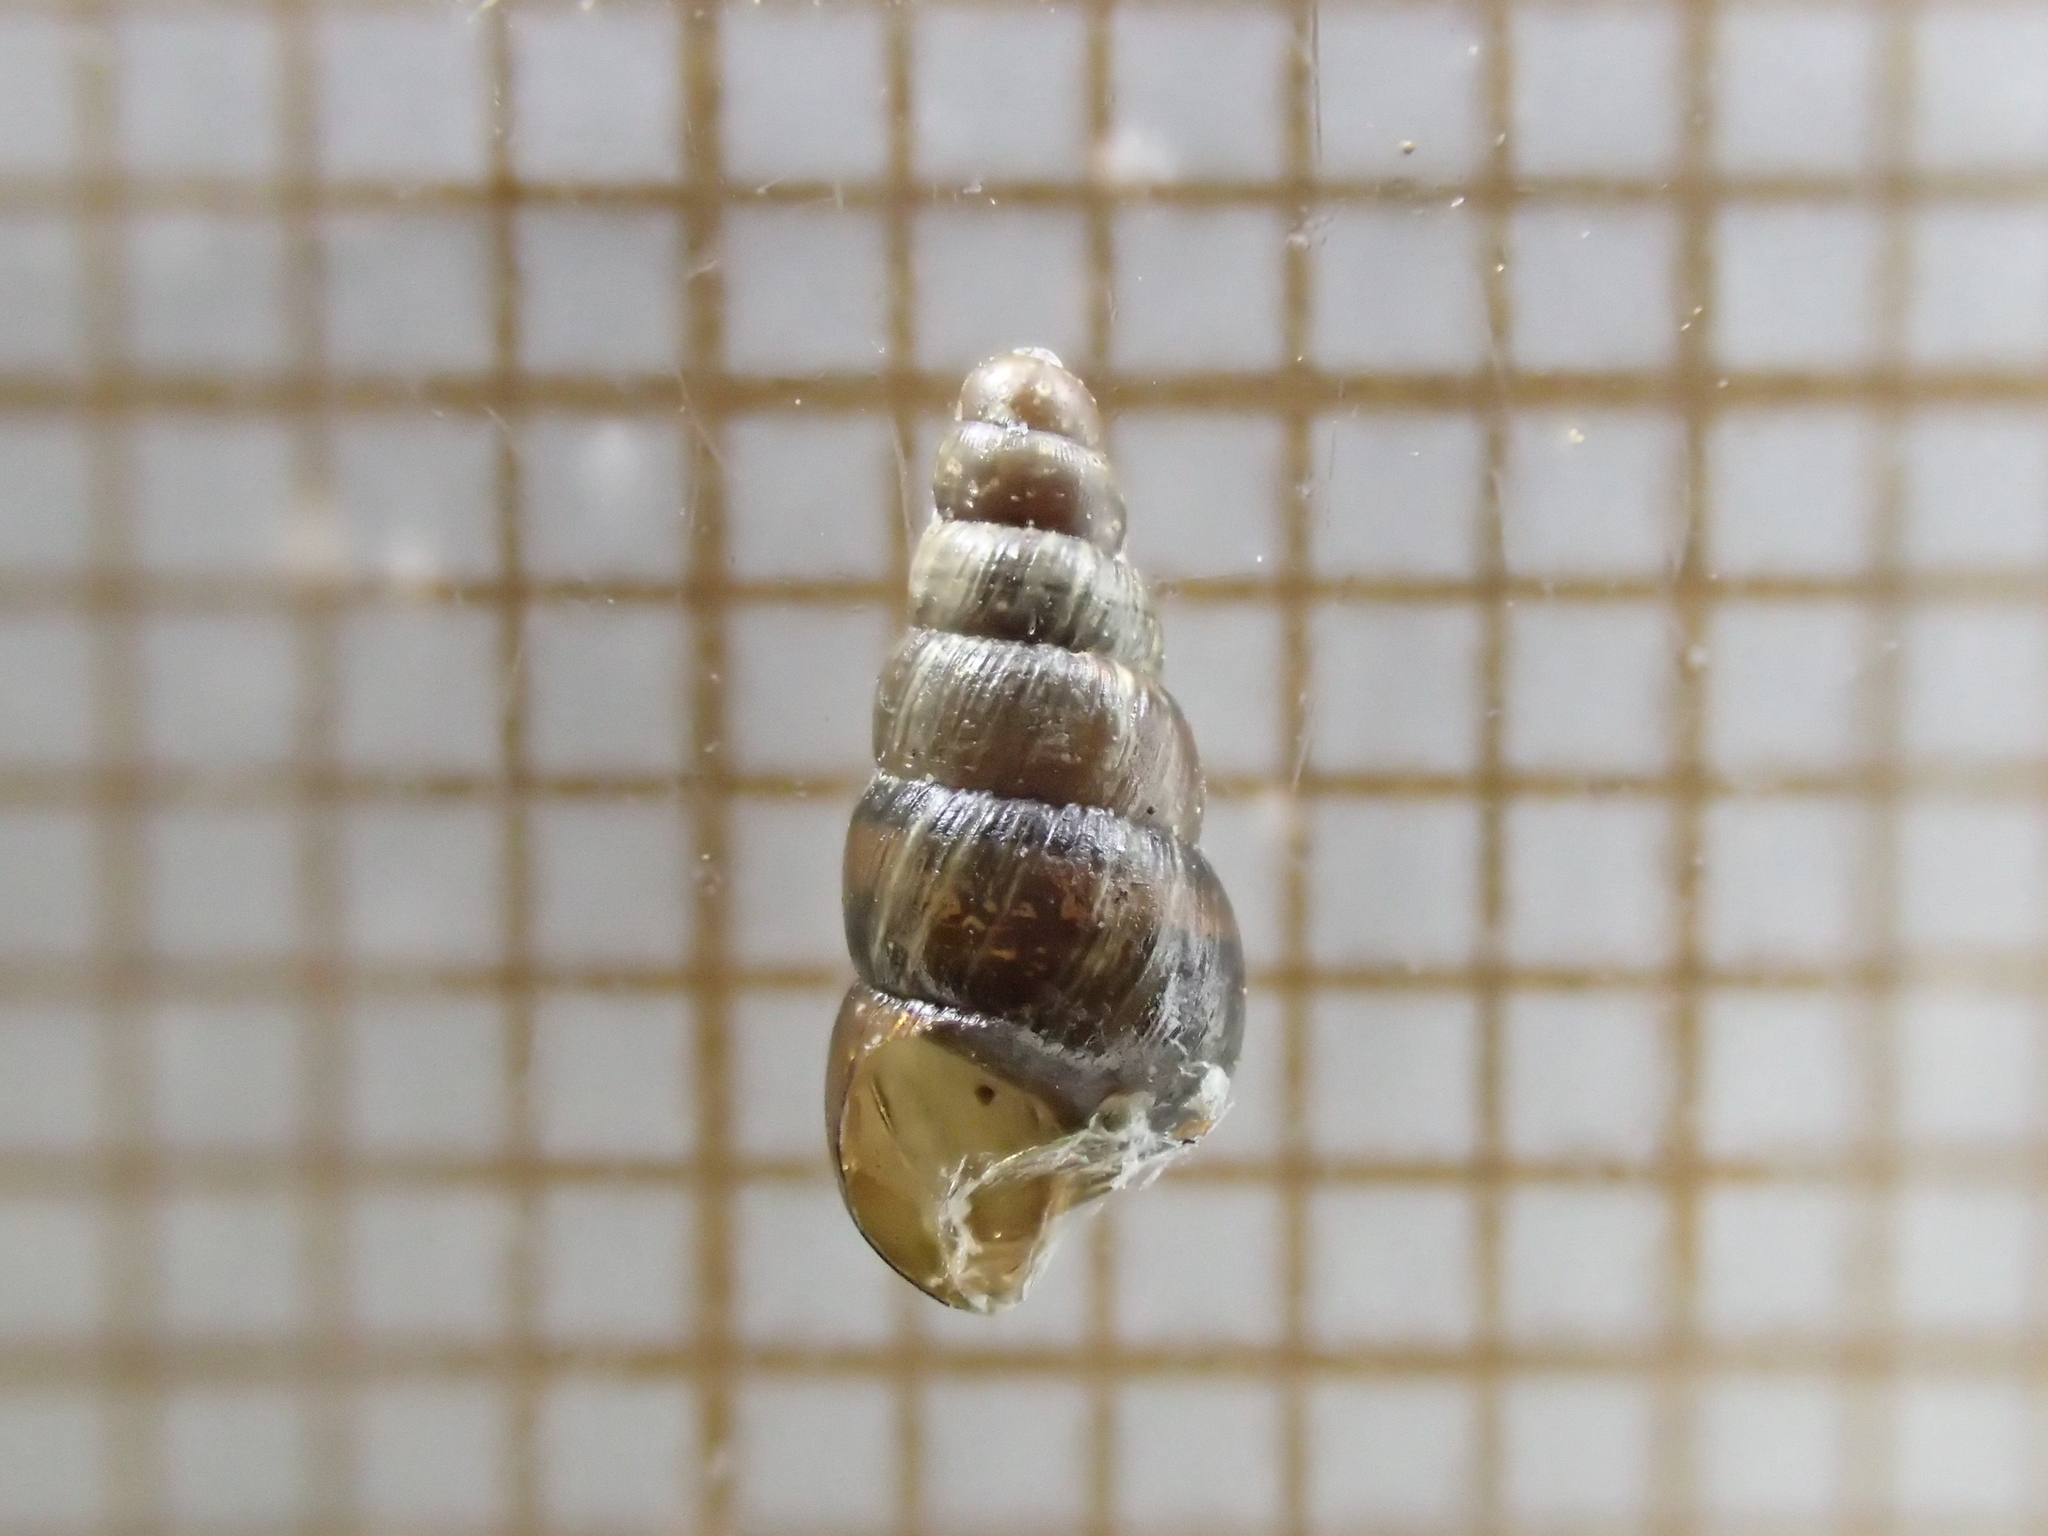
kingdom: Animalia
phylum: Mollusca
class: Gastropoda
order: Stylommatophora
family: Clausiliidae
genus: Balea
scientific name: Balea heydeni
